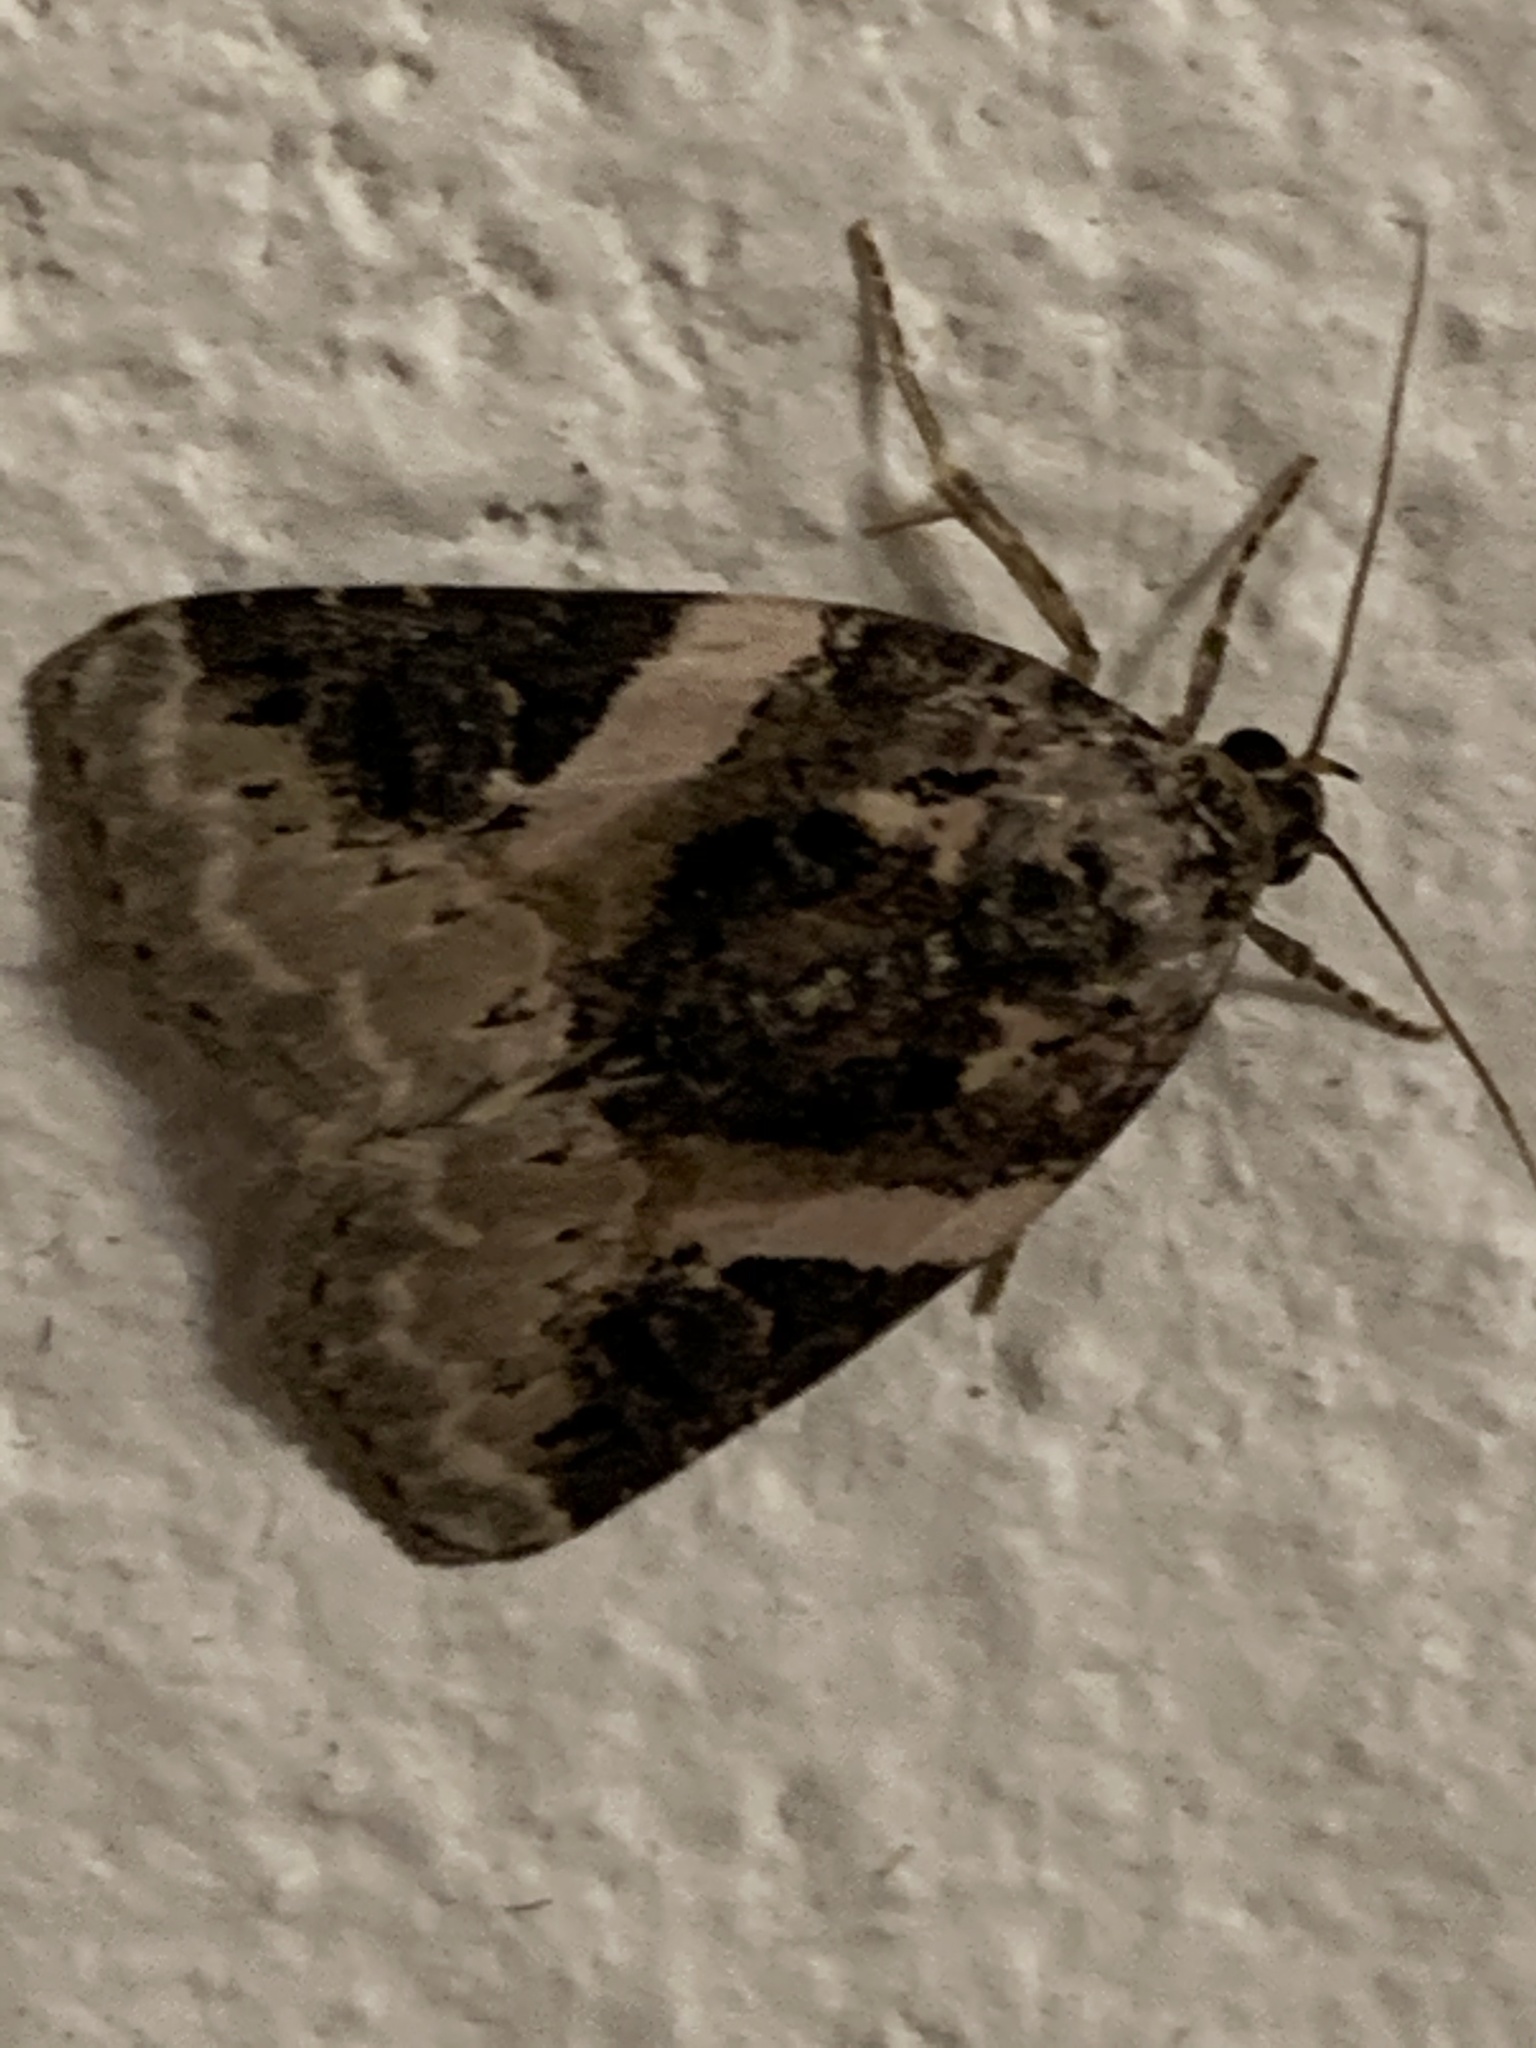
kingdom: Animalia
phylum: Arthropoda
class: Insecta
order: Lepidoptera
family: Noctuidae
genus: Pseudeustrotia
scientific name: Pseudeustrotia carneola
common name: Pink-barred lithacodia moth
